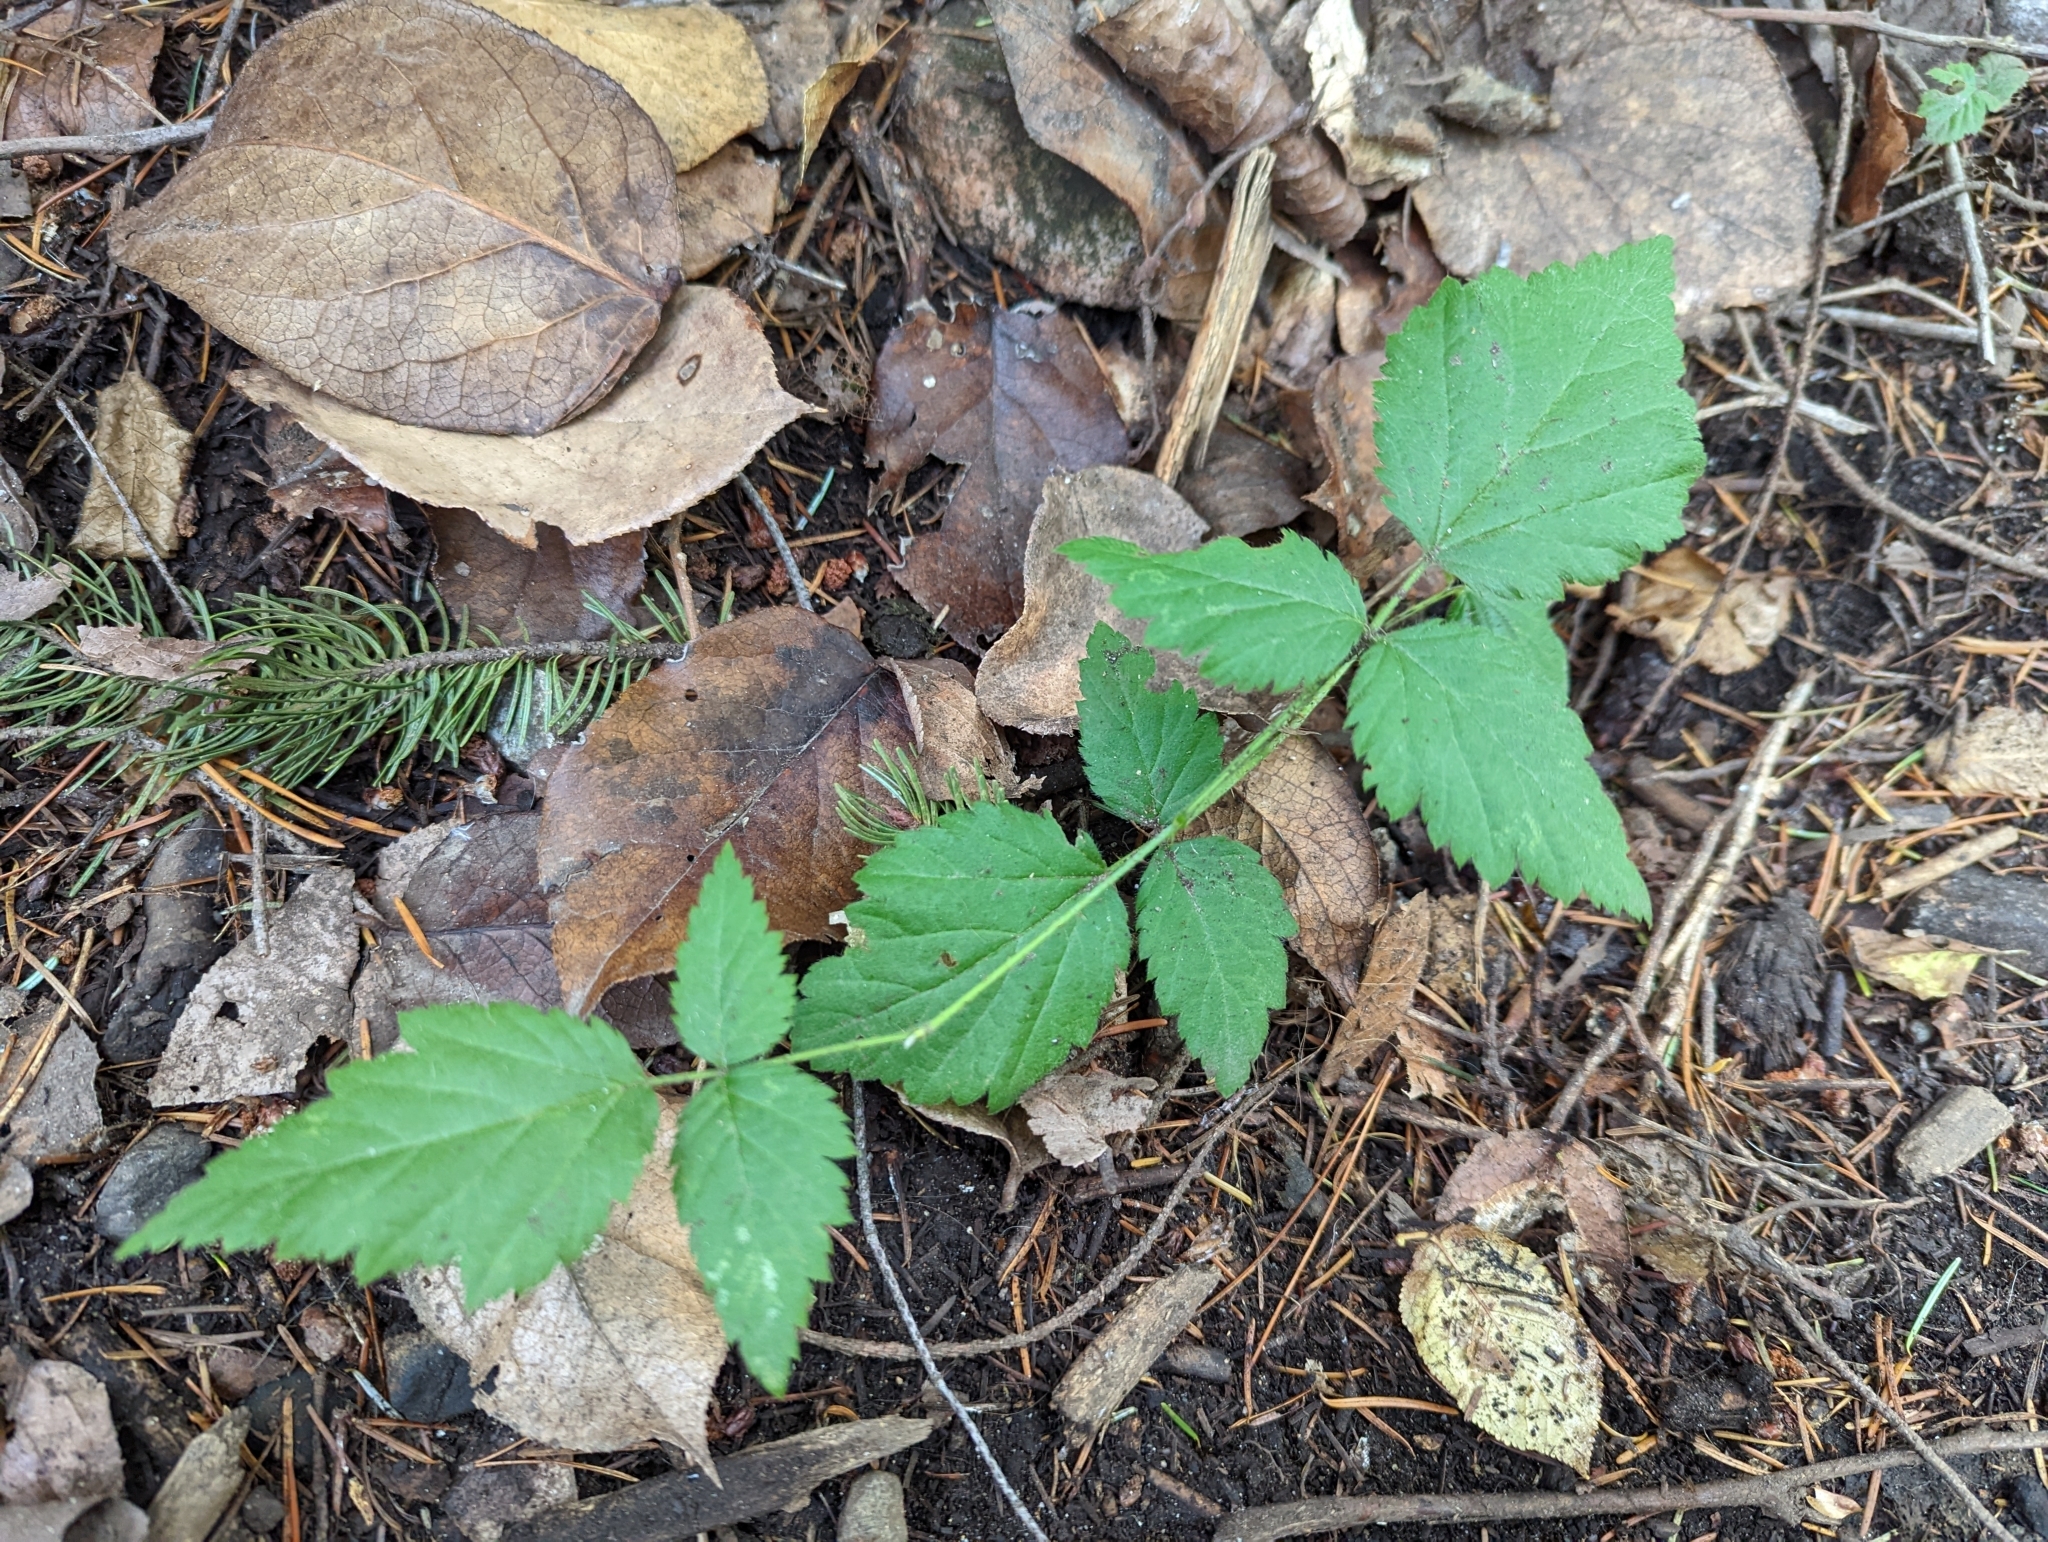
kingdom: Plantae
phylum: Tracheophyta
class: Magnoliopsida
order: Rosales
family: Rosaceae
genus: Rubus
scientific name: Rubus ursinus
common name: Pacific blackberry
